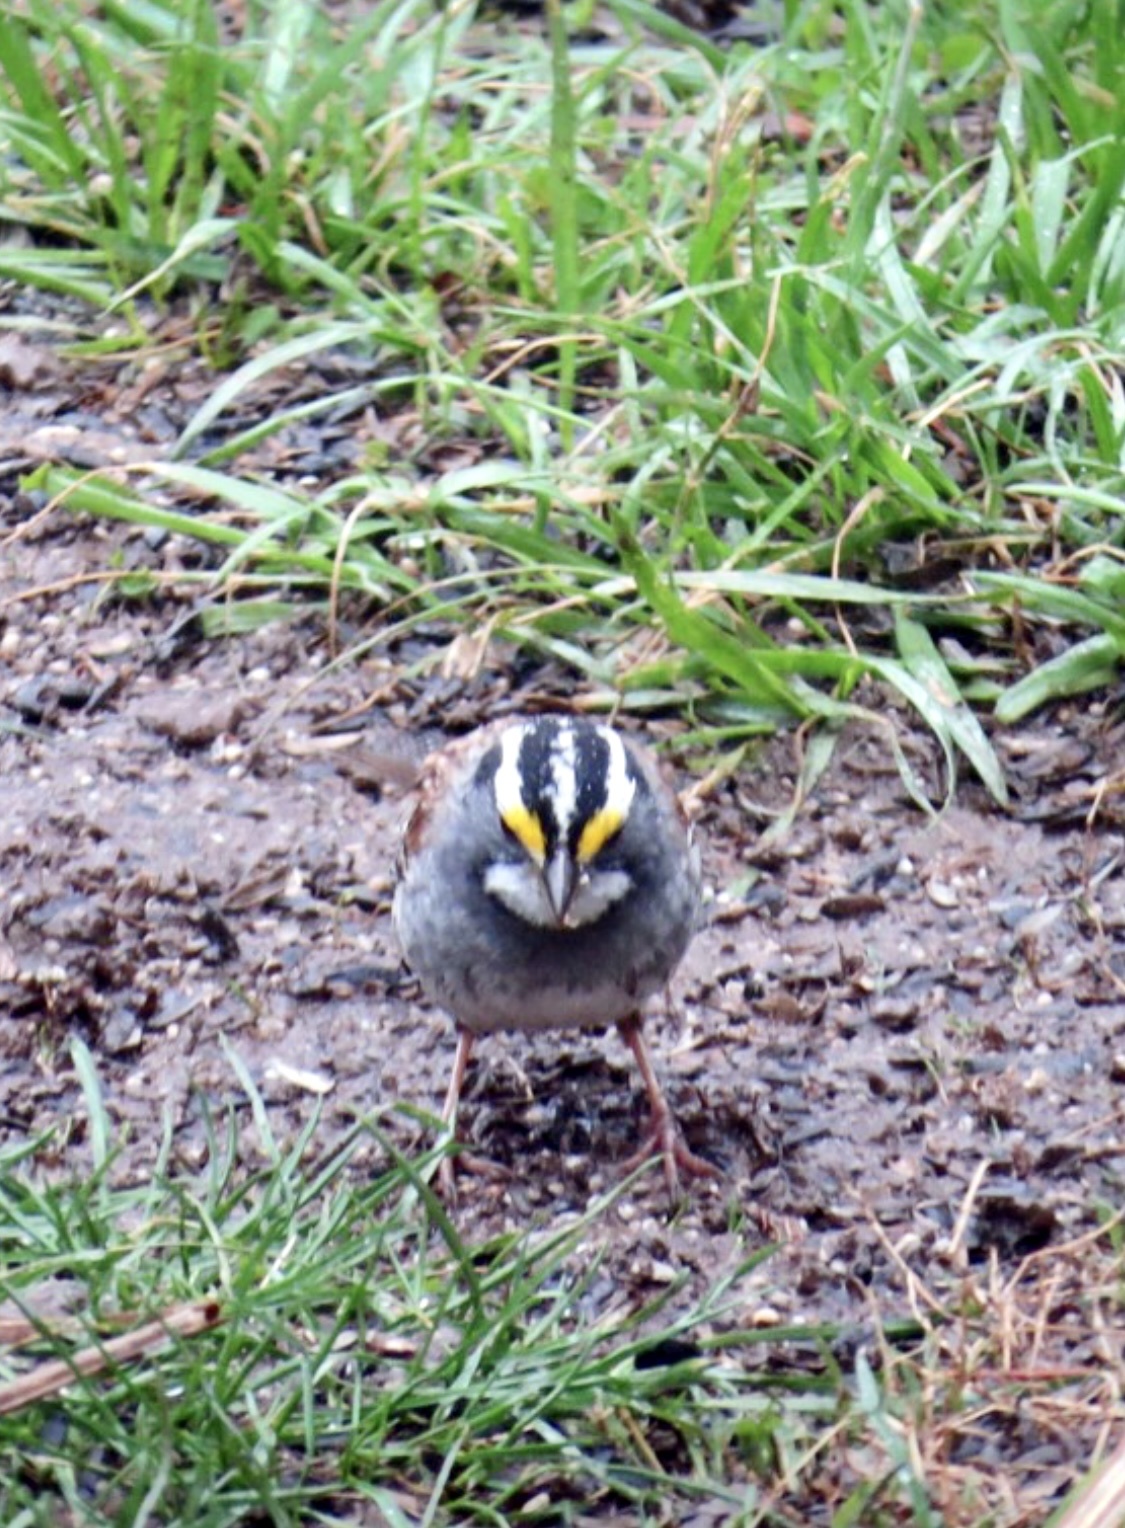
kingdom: Animalia
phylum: Chordata
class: Aves
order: Passeriformes
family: Passerellidae
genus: Zonotrichia
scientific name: Zonotrichia albicollis
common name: White-throated sparrow
